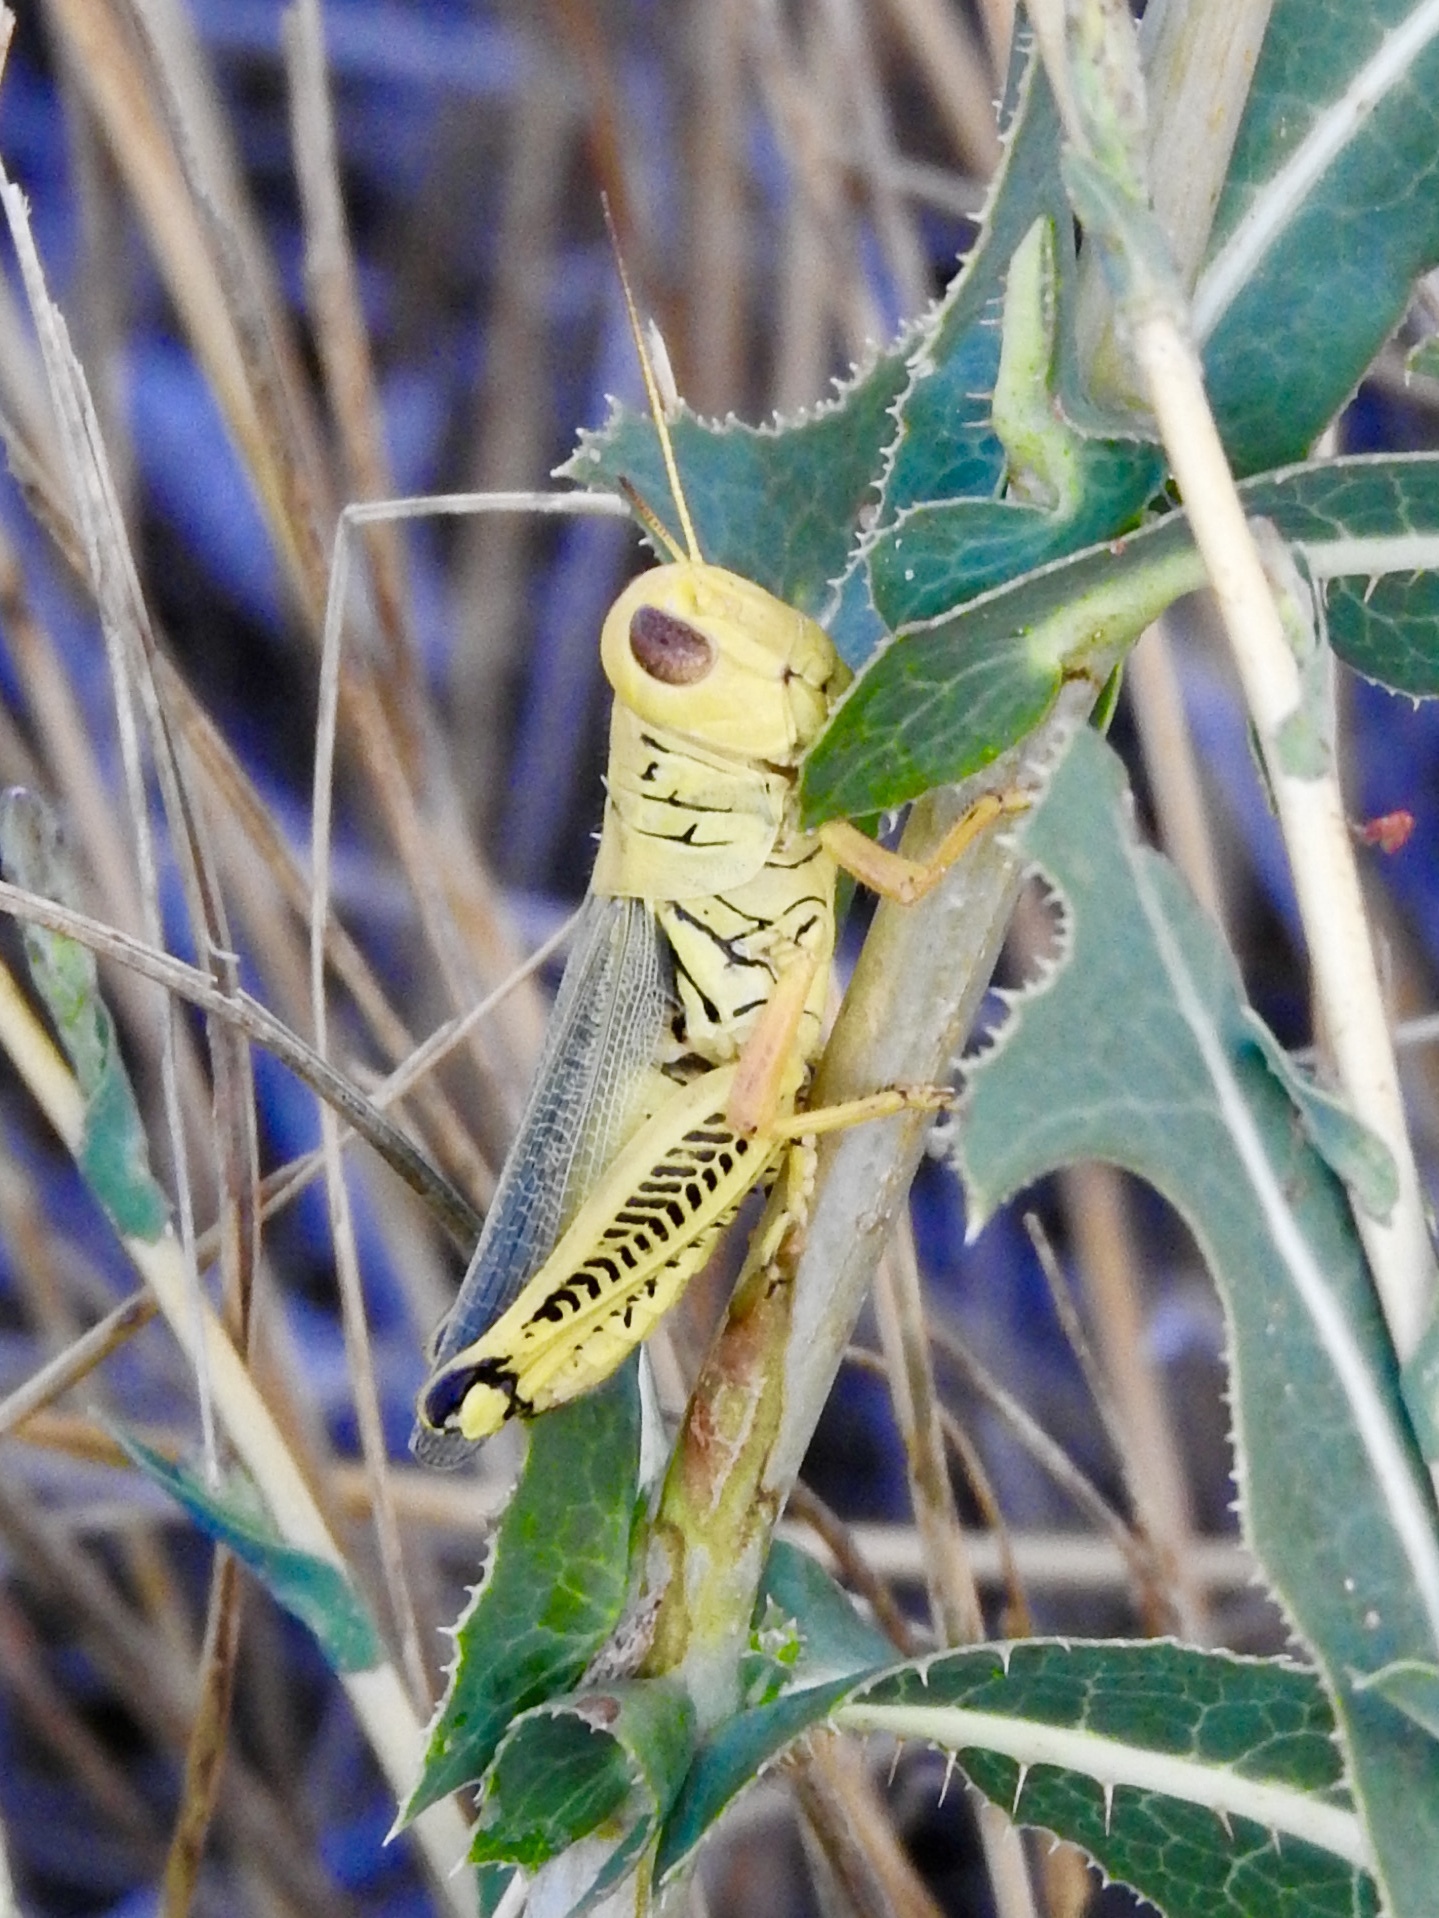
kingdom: Animalia
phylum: Arthropoda
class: Insecta
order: Orthoptera
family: Acrididae
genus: Melanoplus
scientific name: Melanoplus differentialis
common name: Differential grasshopper
